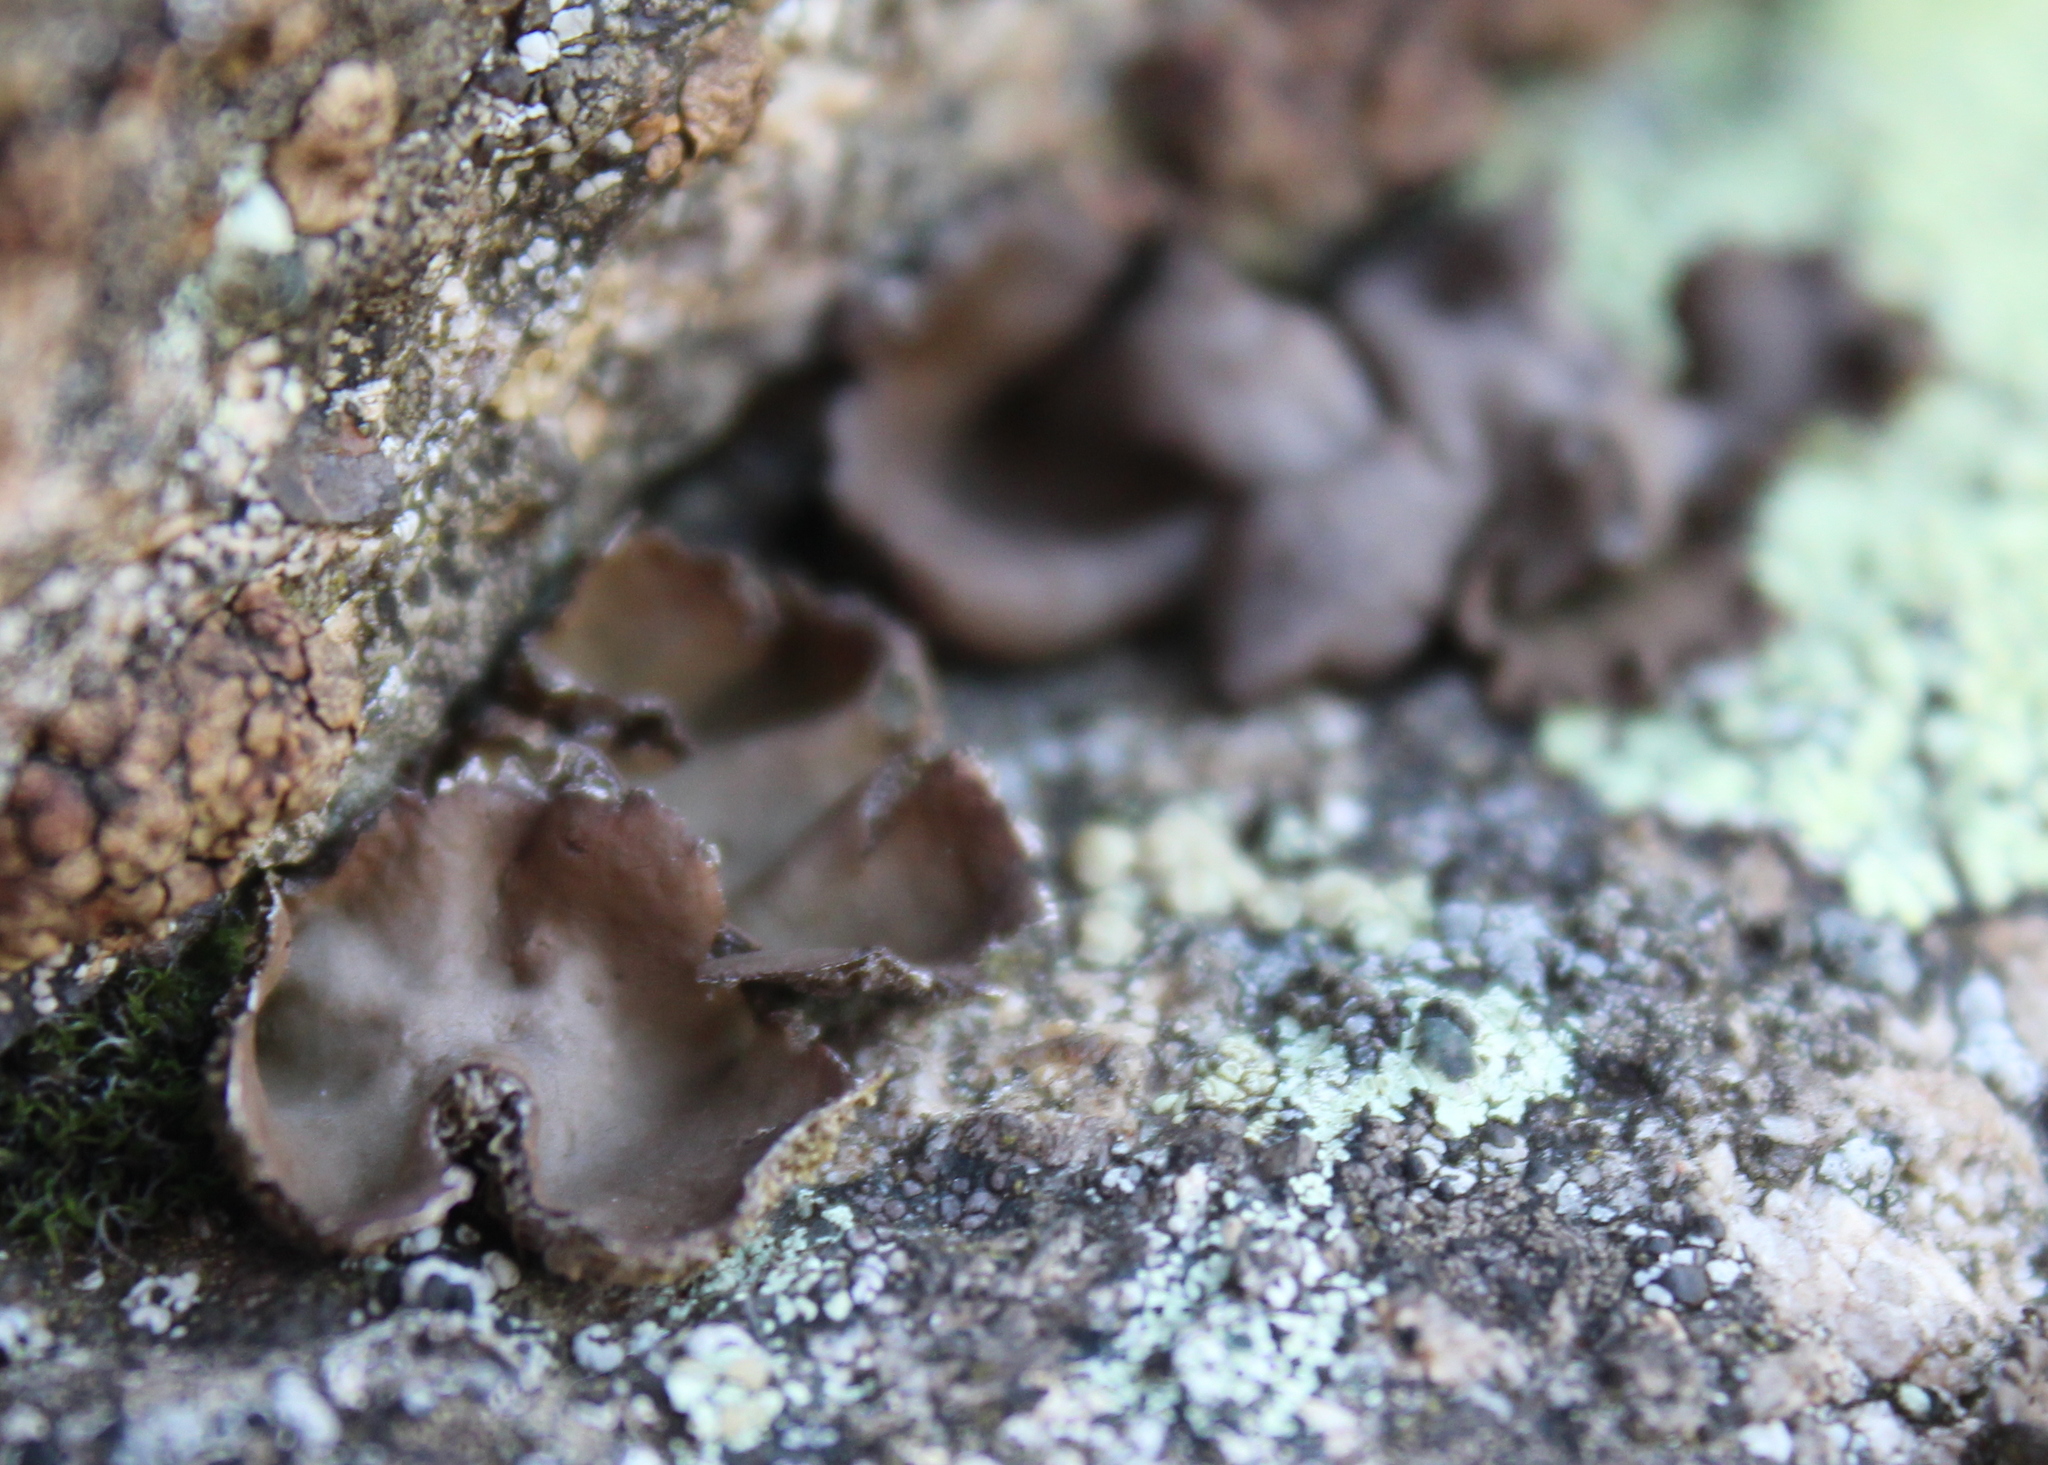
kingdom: Fungi
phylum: Ascomycota
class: Lecanoromycetes
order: Umbilicariales
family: Umbilicariaceae
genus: Umbilicaria
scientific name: Umbilicaria muhlenbergii
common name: Lesser rocktripe
